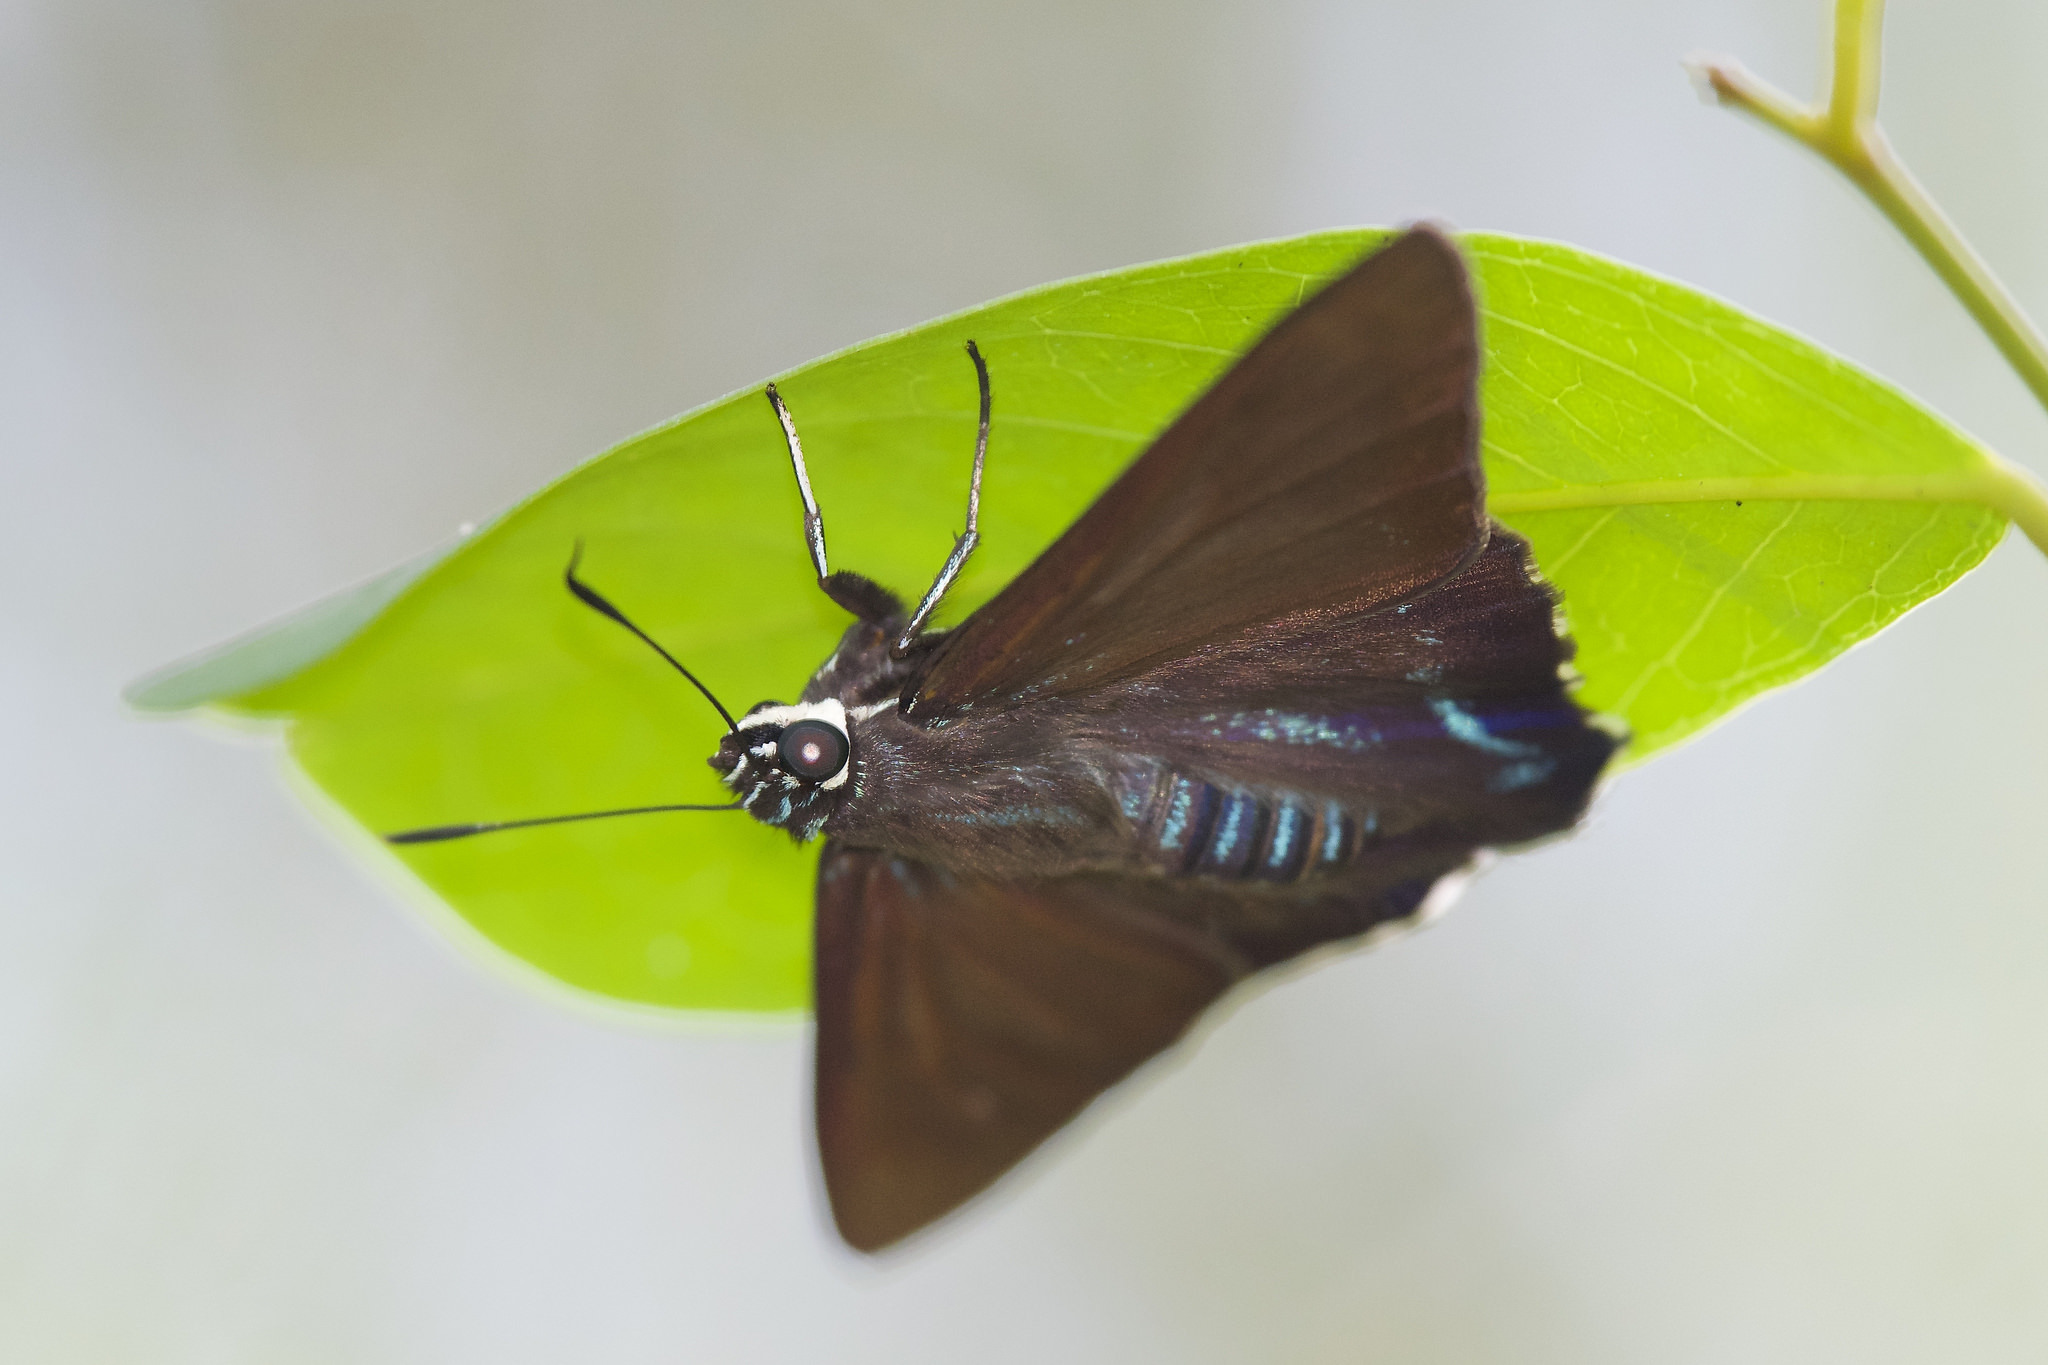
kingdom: Animalia
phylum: Arthropoda
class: Insecta
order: Lepidoptera
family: Hesperiidae
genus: Phocides
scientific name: Phocides pigmalion
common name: Mangrove skipper
